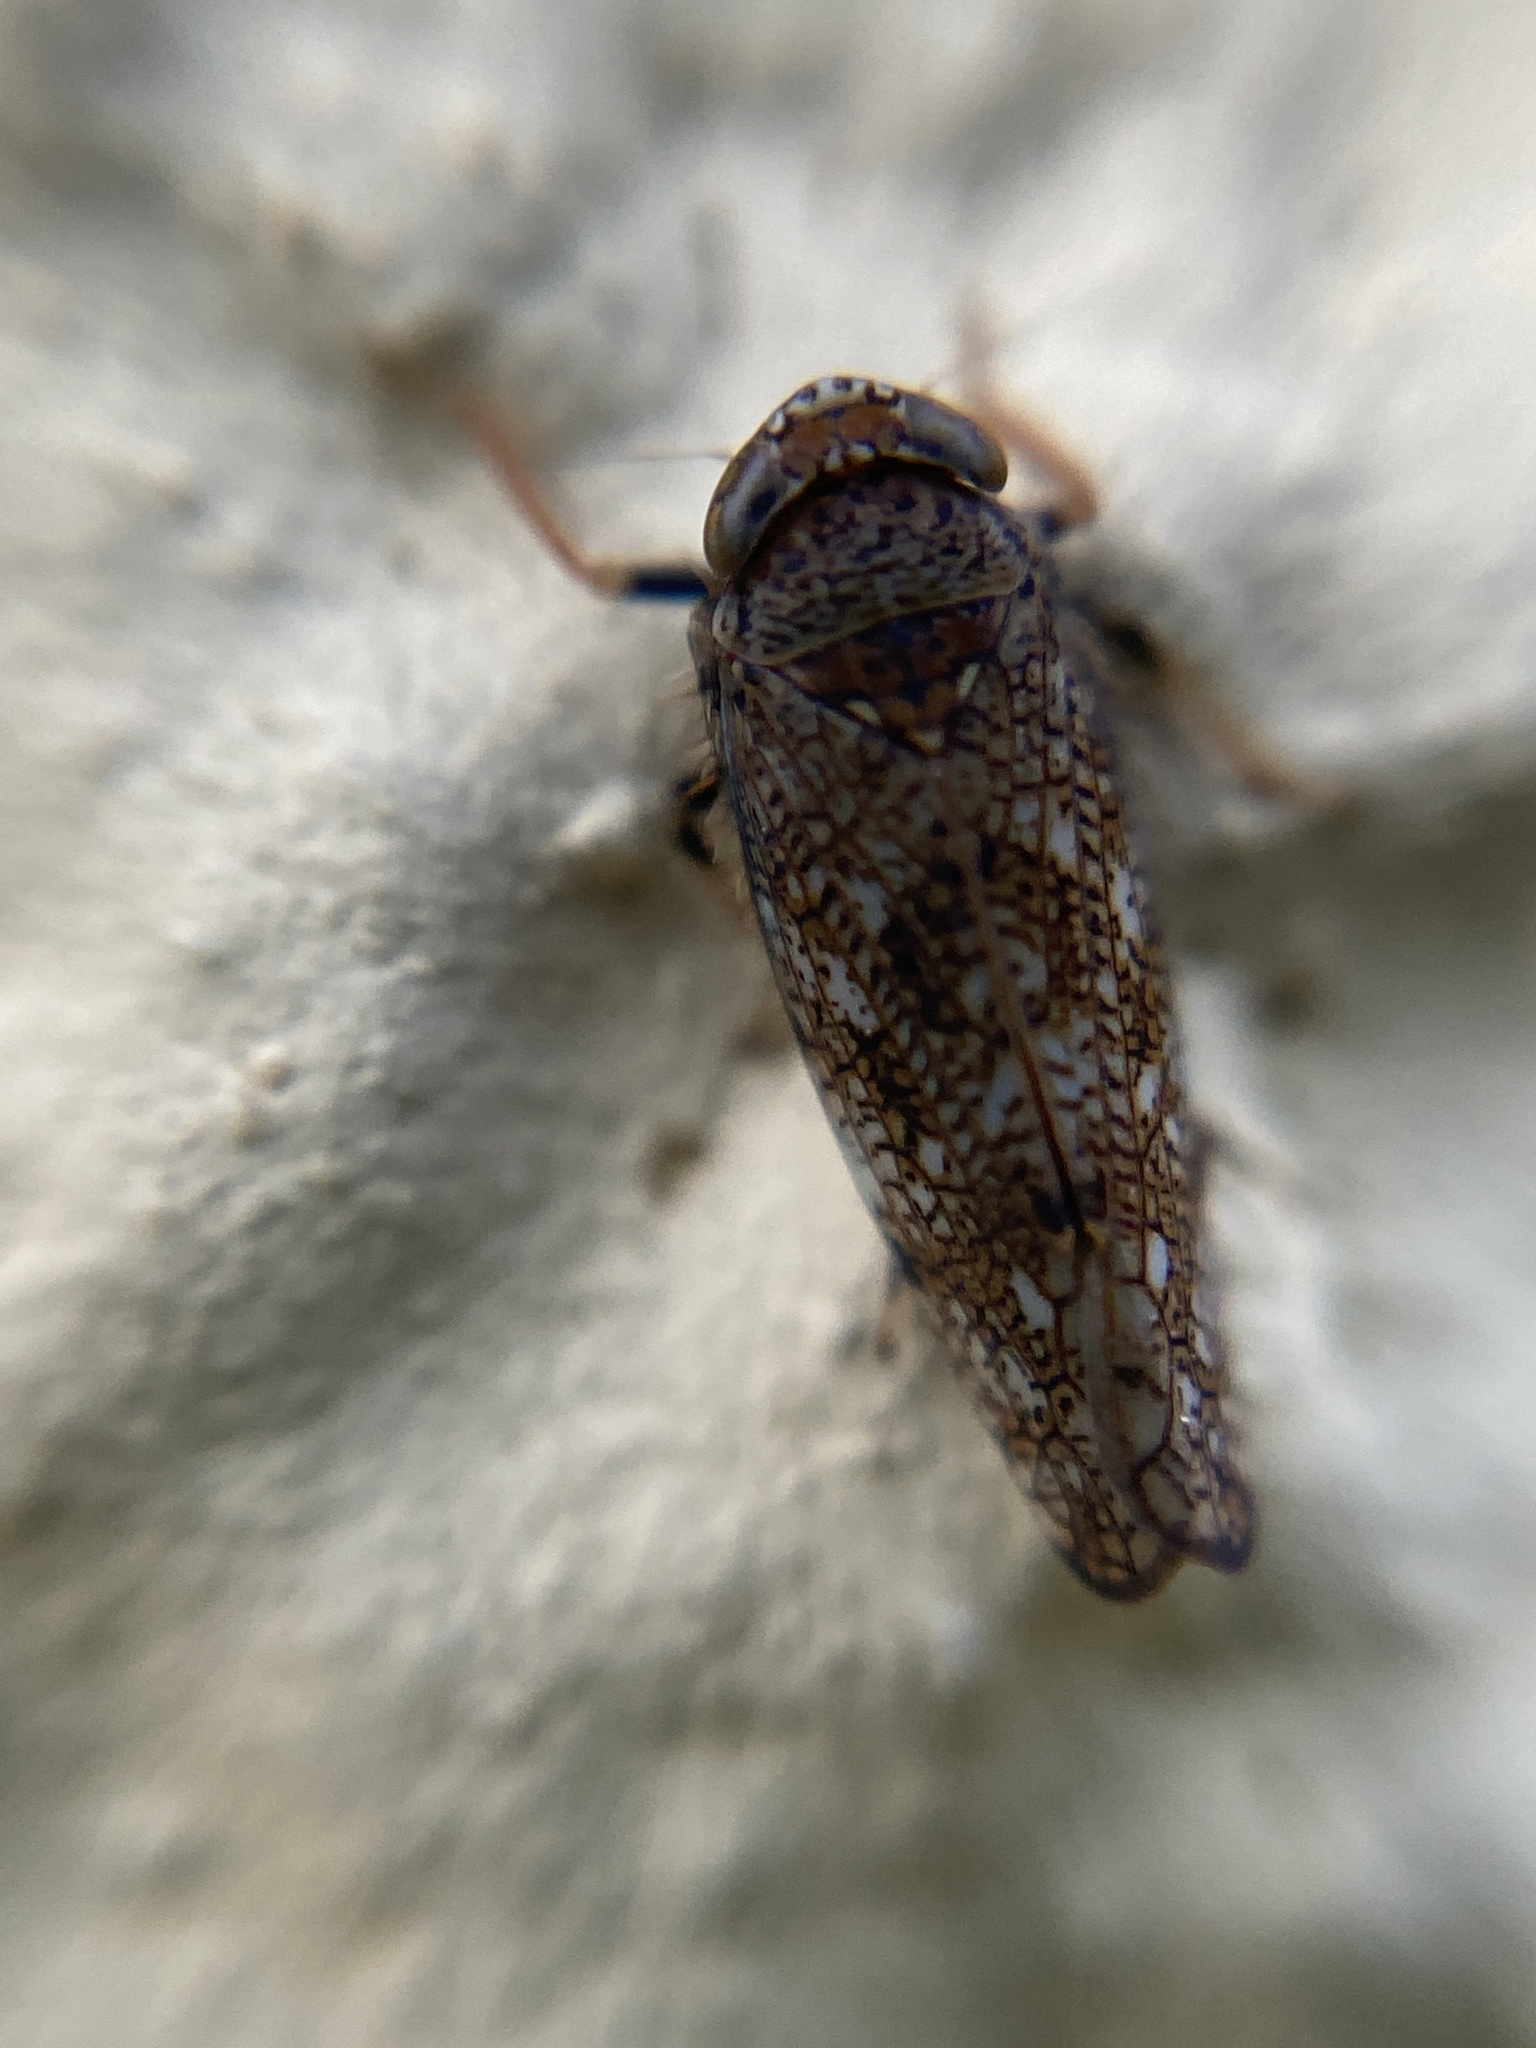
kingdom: Animalia
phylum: Arthropoda
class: Insecta
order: Hemiptera
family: Cicadellidae
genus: Orientus
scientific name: Orientus ishidae
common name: Japanese leafhopper
